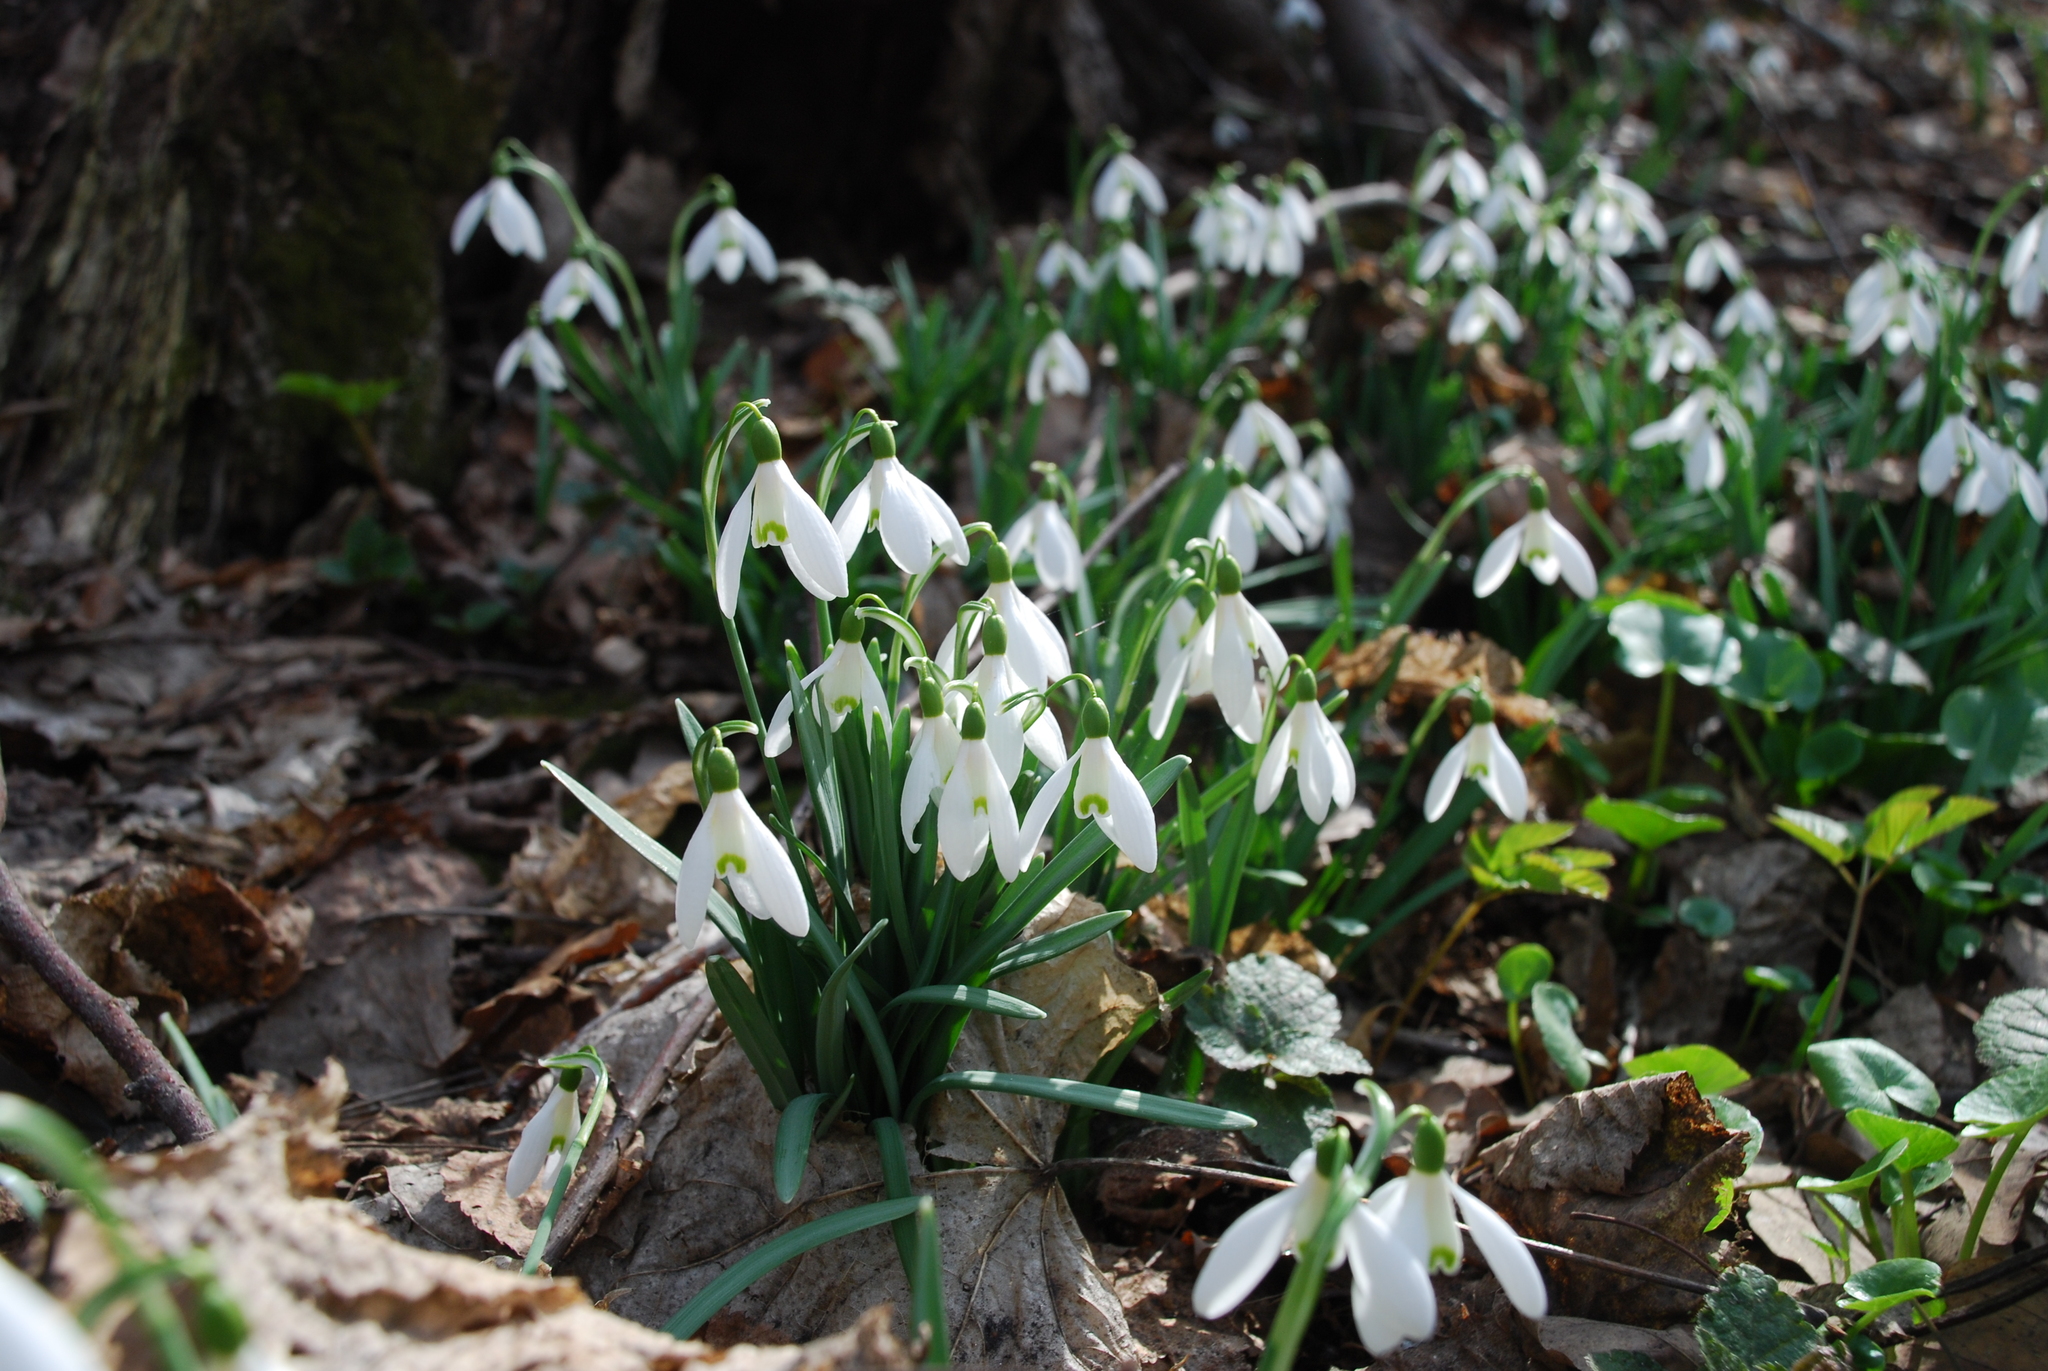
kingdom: Plantae
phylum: Tracheophyta
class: Liliopsida
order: Asparagales
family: Amaryllidaceae
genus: Galanthus
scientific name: Galanthus nivalis
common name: Snowdrop
